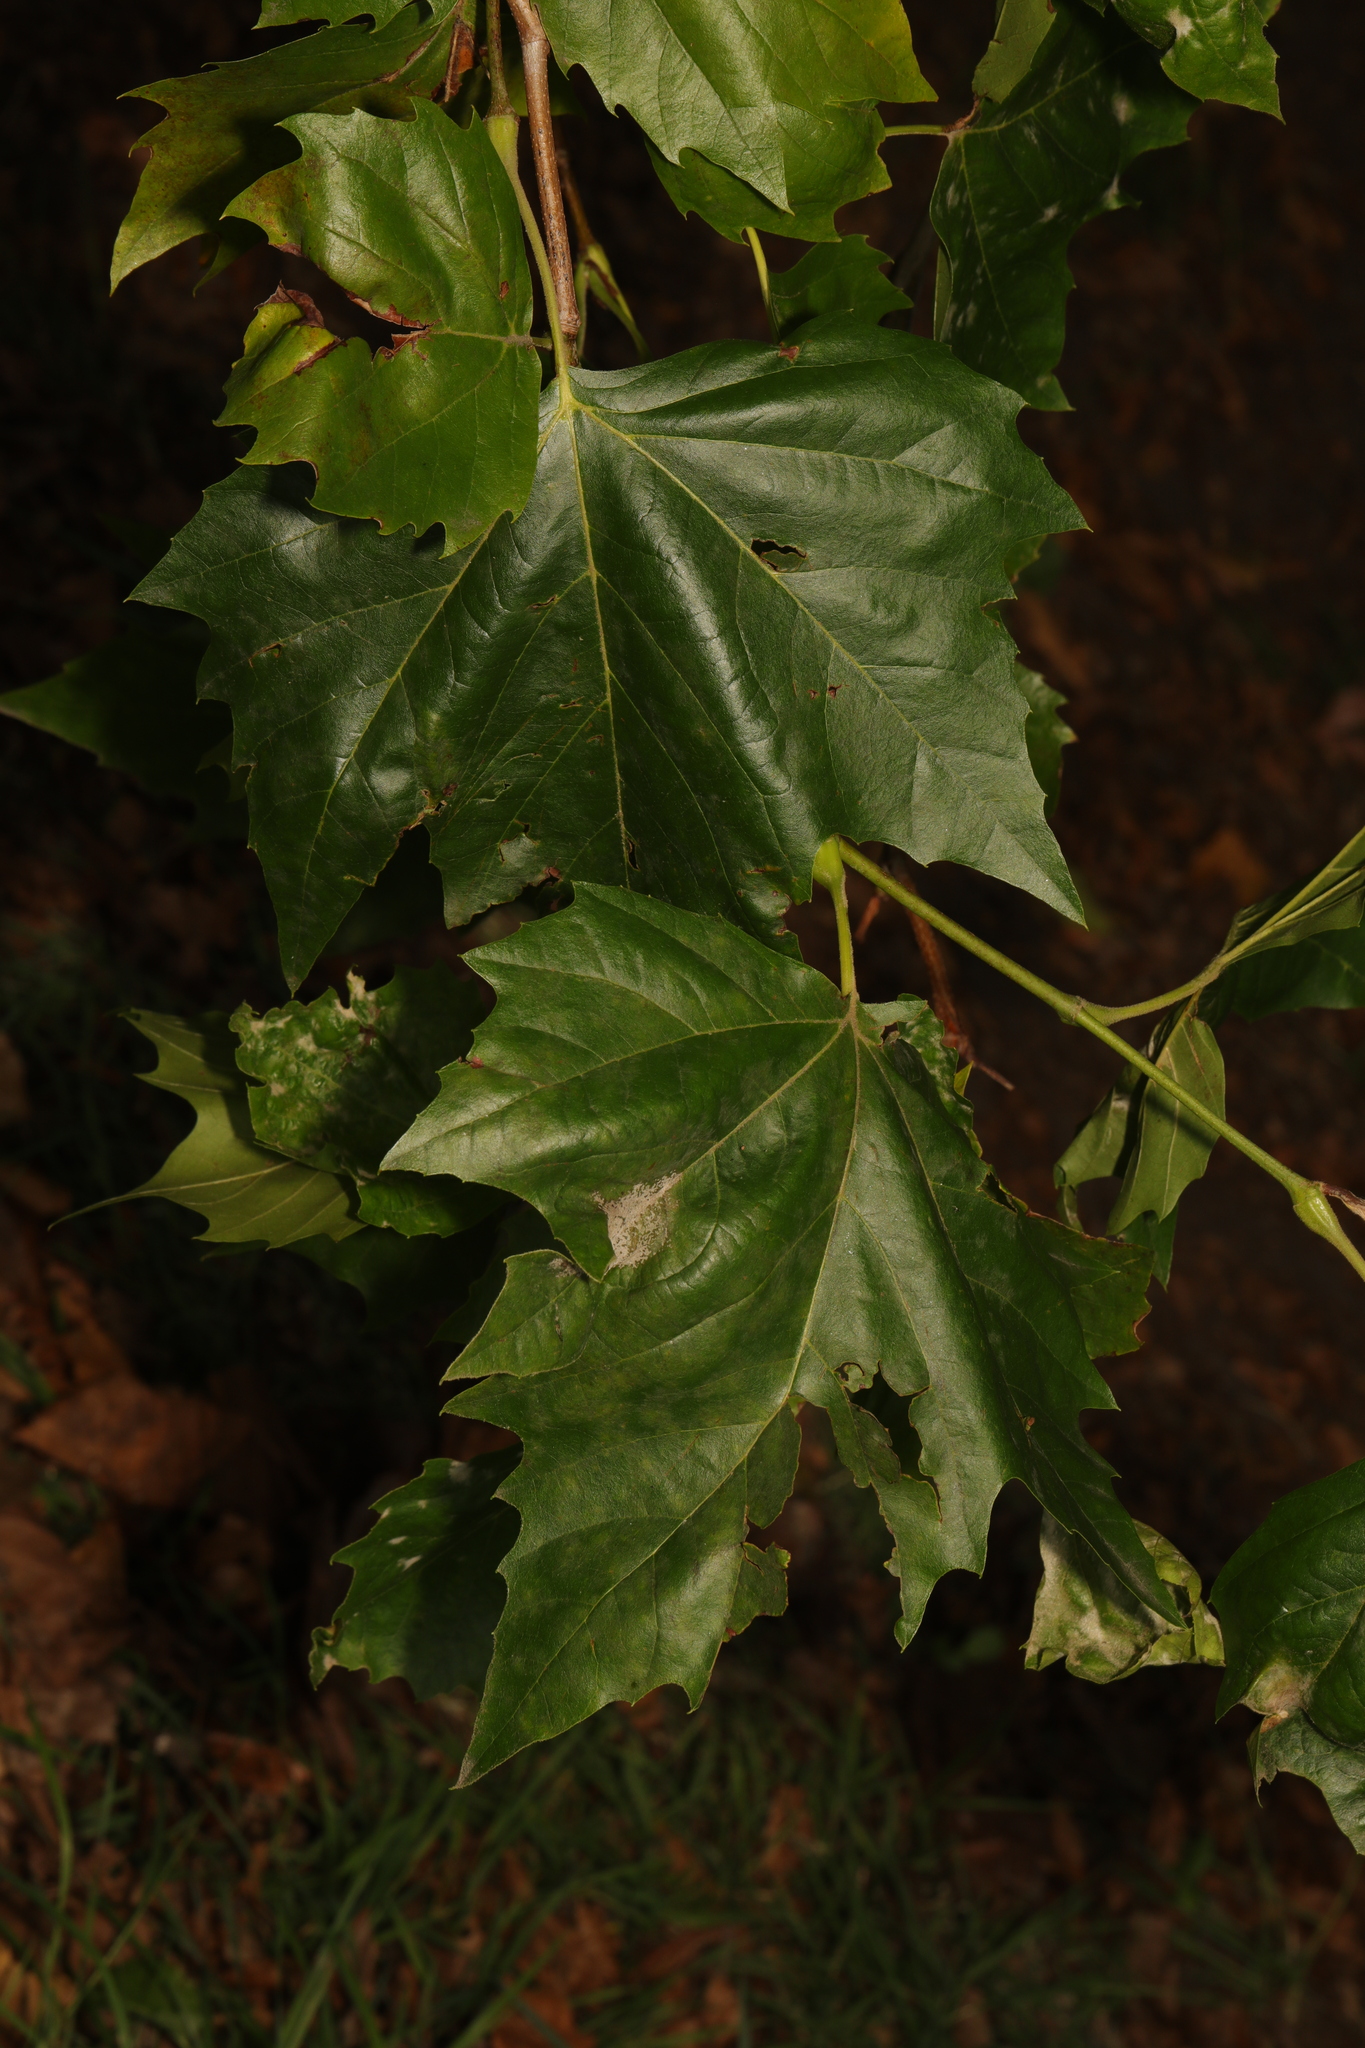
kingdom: Plantae
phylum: Tracheophyta
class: Magnoliopsida
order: Proteales
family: Platanaceae
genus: Platanus
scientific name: Platanus hispanica
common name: London plane
